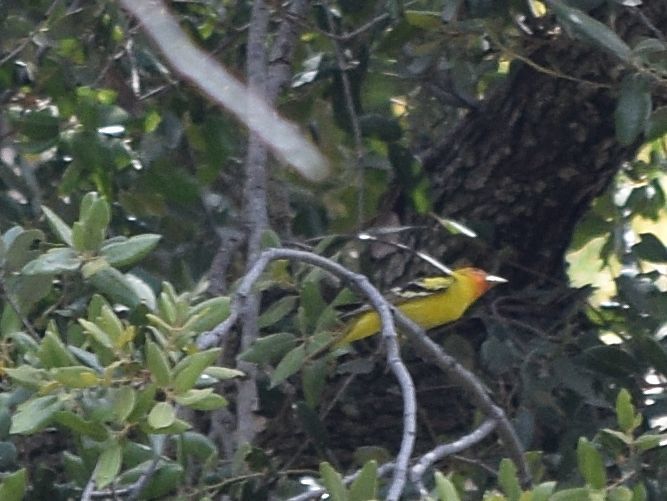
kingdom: Animalia
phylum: Chordata
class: Aves
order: Passeriformes
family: Cardinalidae
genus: Piranga
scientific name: Piranga ludoviciana
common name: Western tanager
